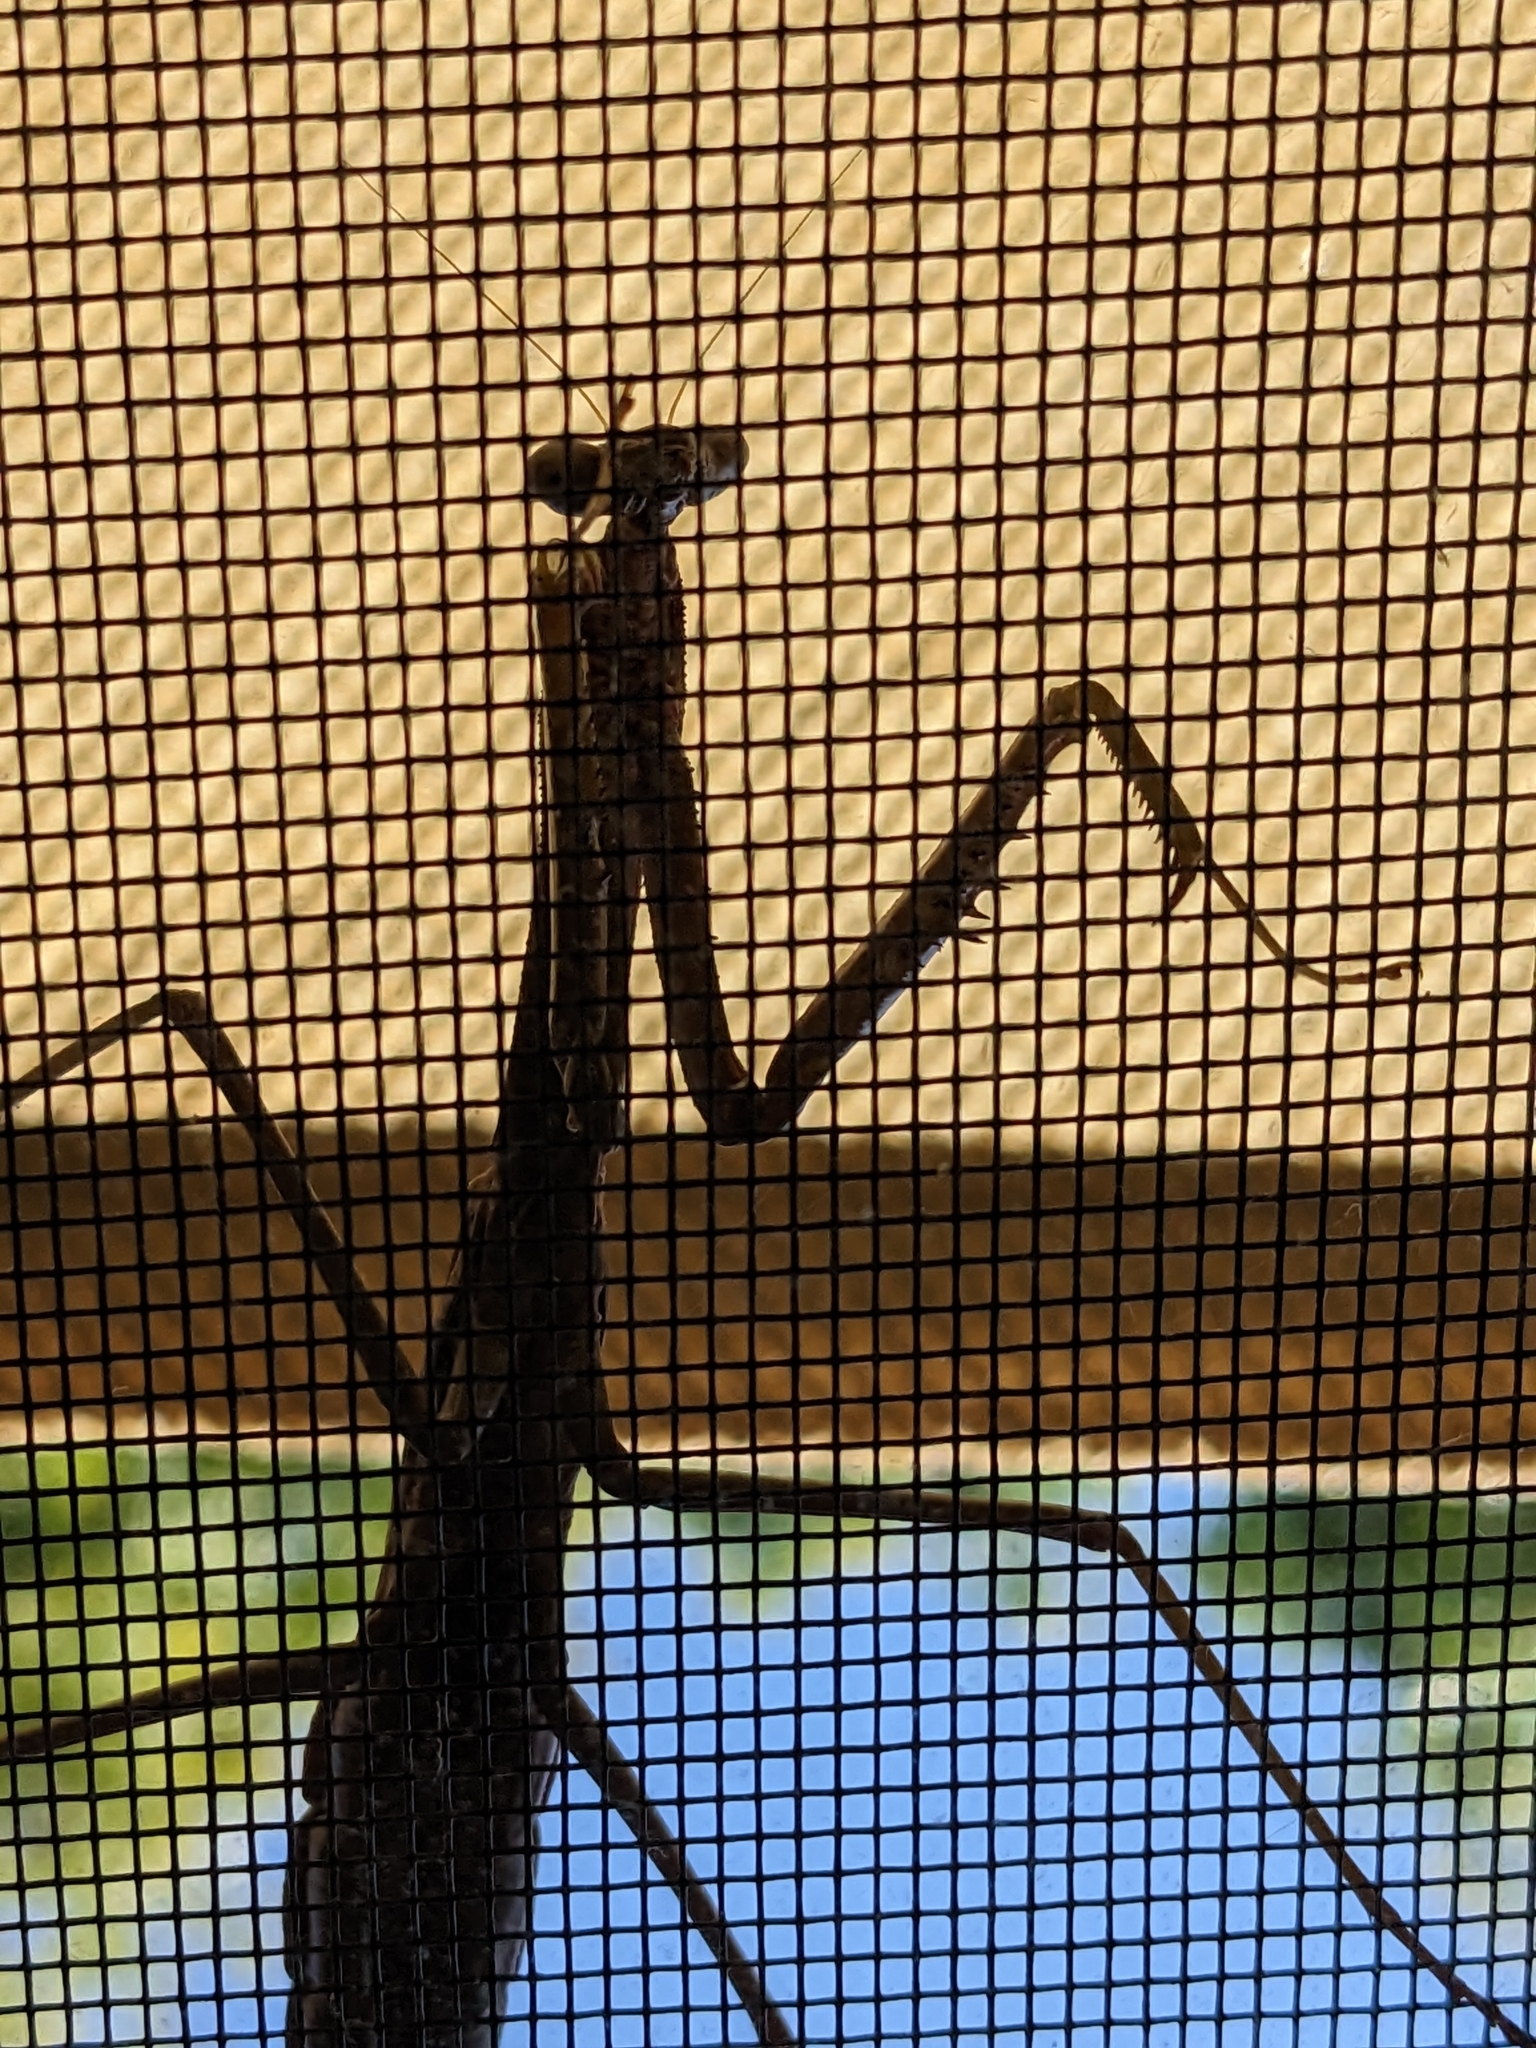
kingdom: Animalia
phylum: Arthropoda
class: Insecta
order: Mantodea
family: Mantidae
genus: Archimantis
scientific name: Archimantis sobrina
